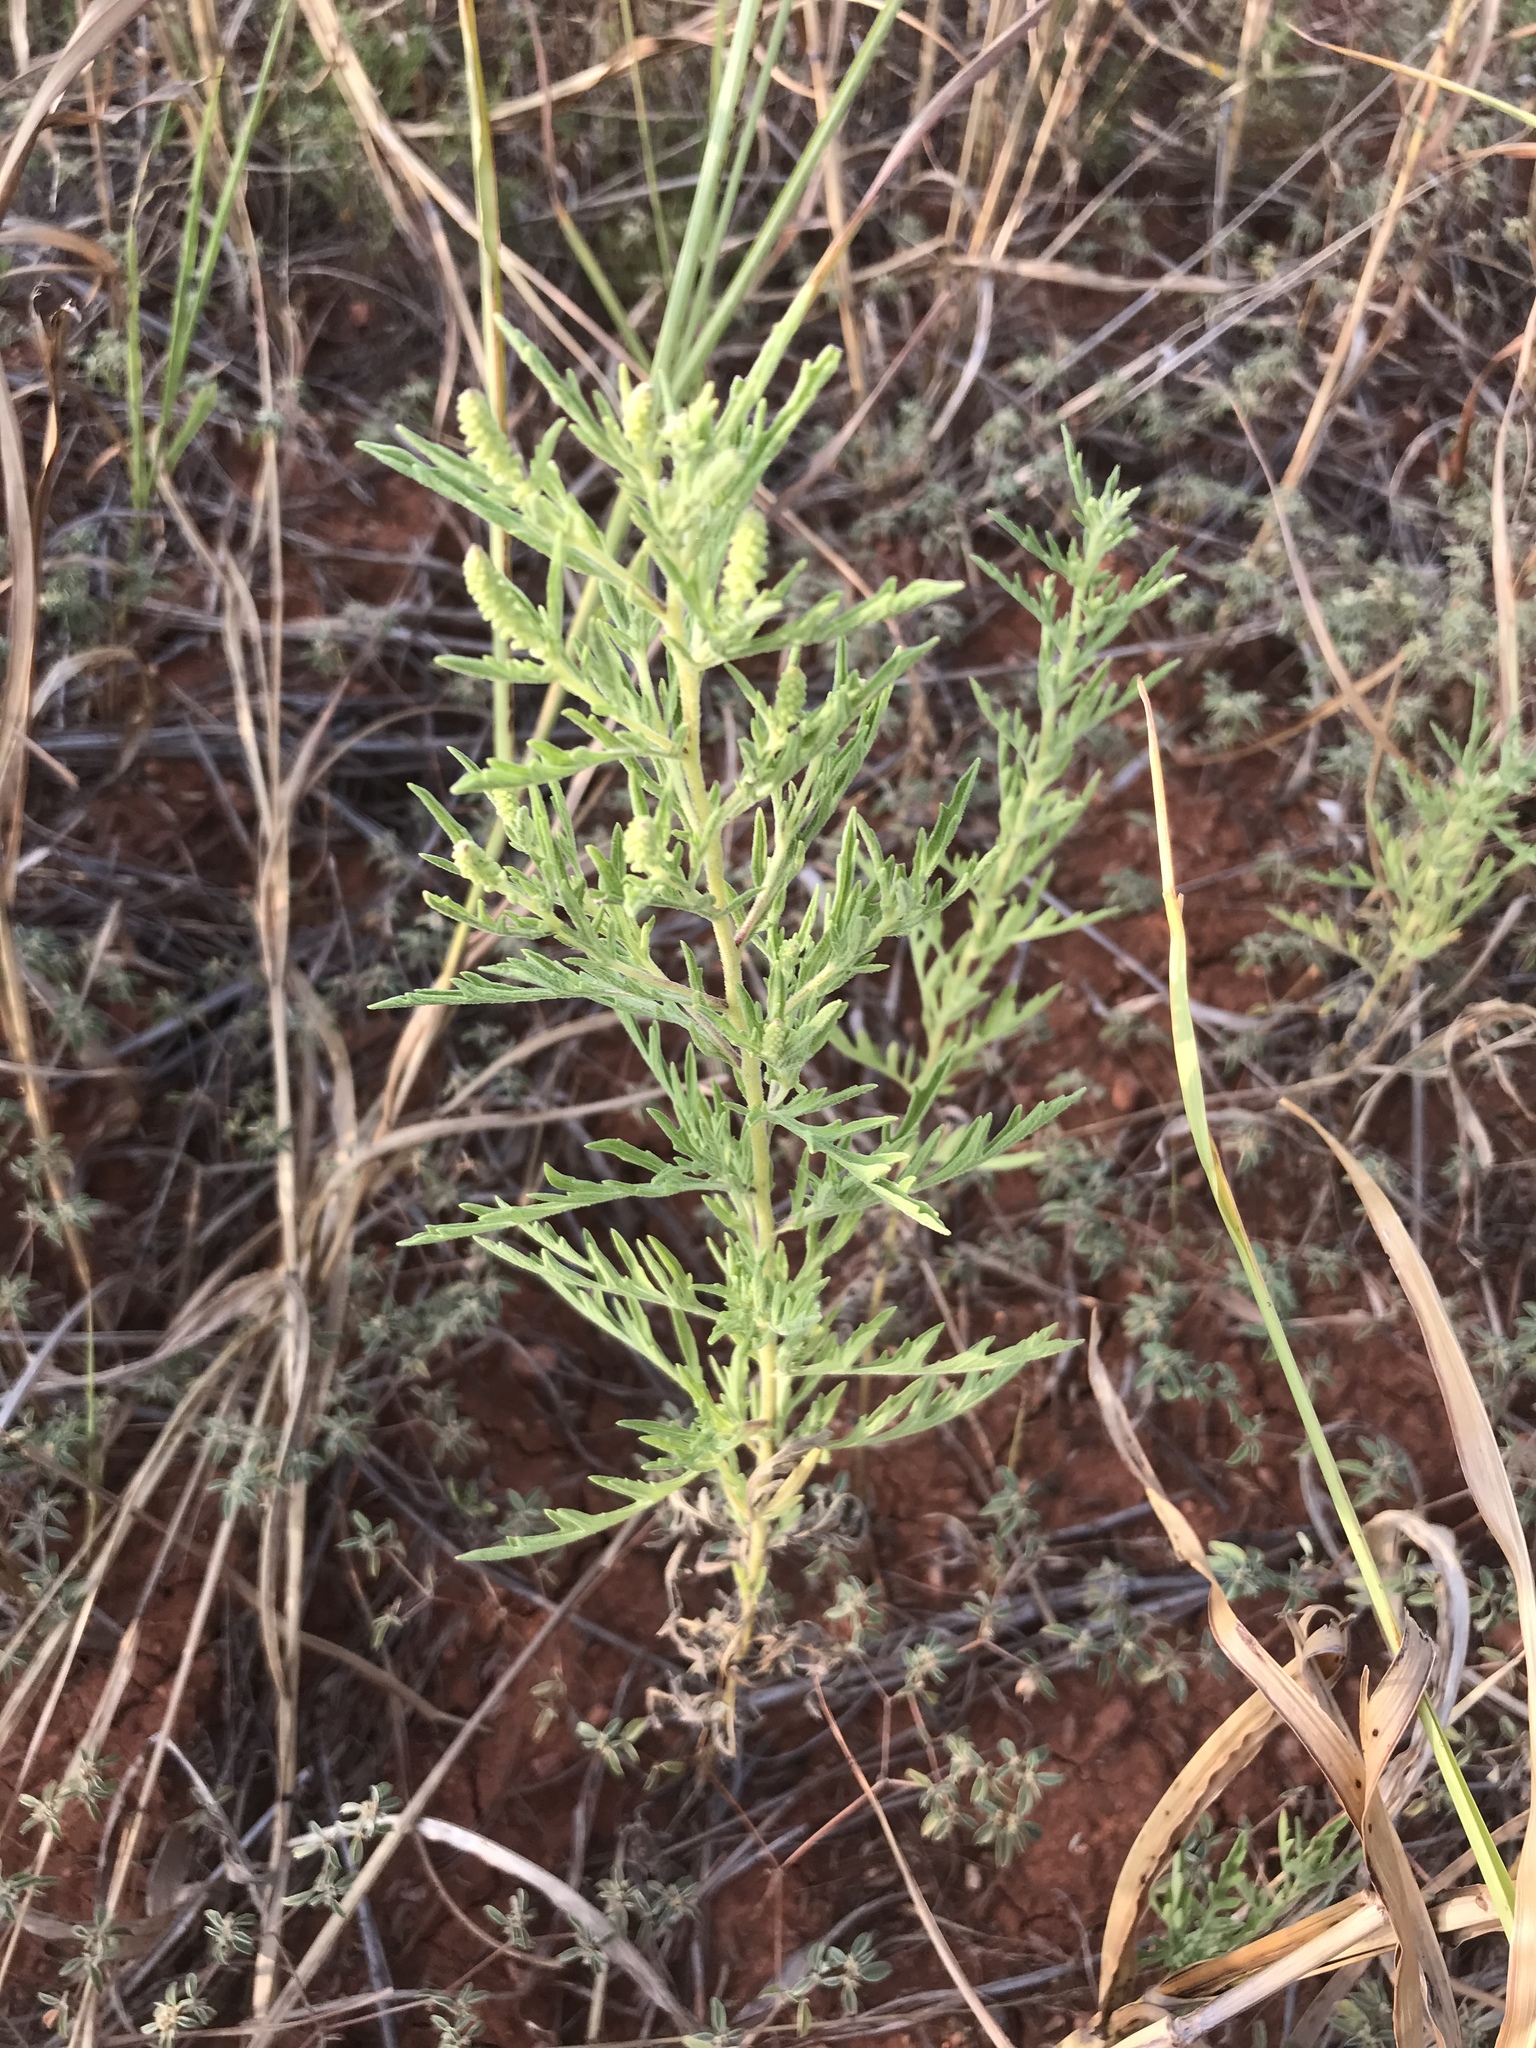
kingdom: Plantae
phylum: Tracheophyta
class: Magnoliopsida
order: Asterales
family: Asteraceae
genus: Ambrosia
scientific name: Ambrosia psilostachya
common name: Perennial ragweed
